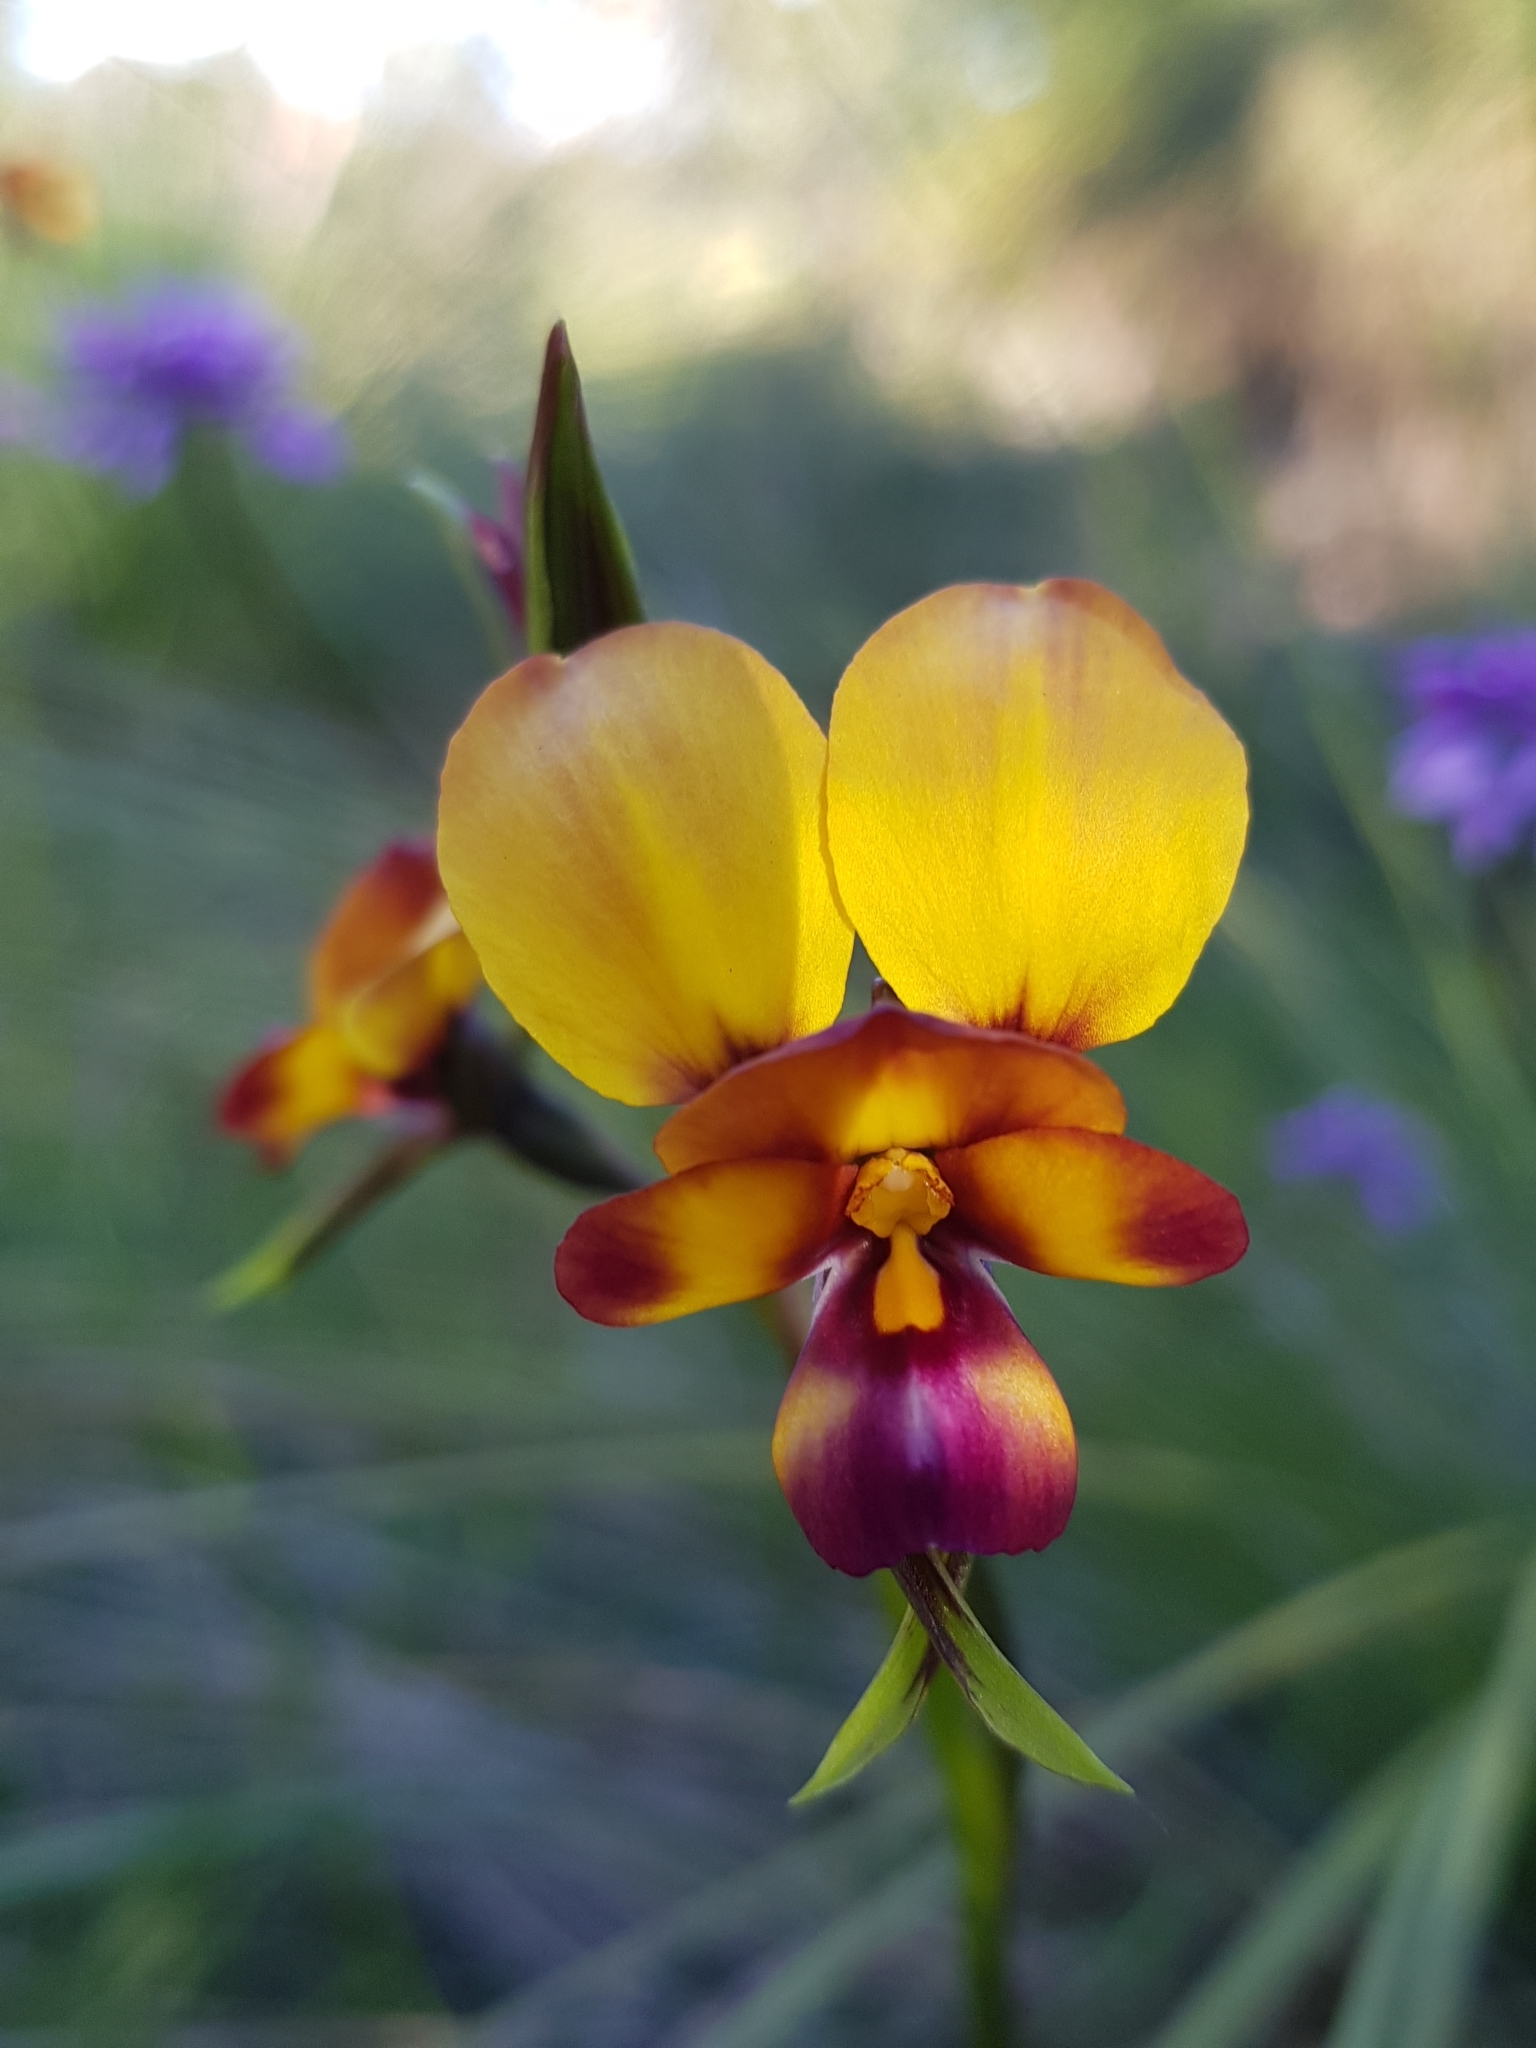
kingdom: Plantae
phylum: Tracheophyta
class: Liliopsida
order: Asparagales
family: Orchidaceae
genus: Diuris
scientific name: Diuris magnifica
